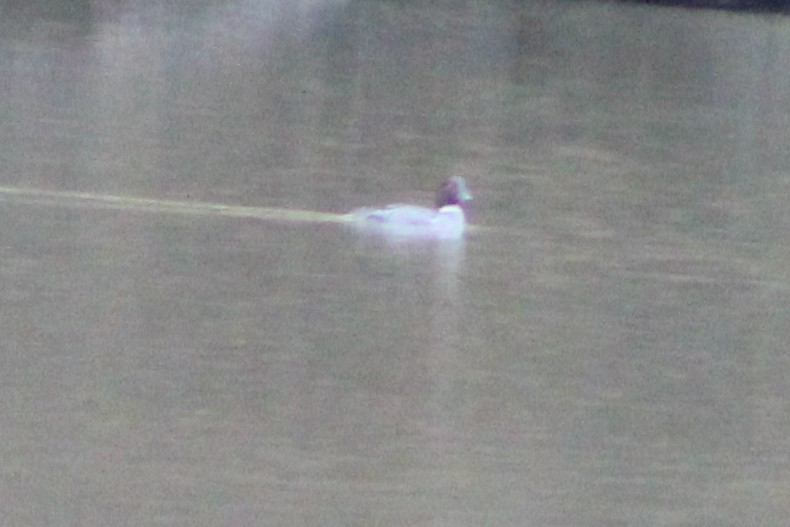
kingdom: Animalia
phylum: Chordata
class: Aves
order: Anseriformes
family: Anatidae
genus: Bucephala
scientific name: Bucephala clangula
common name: Common goldeneye
